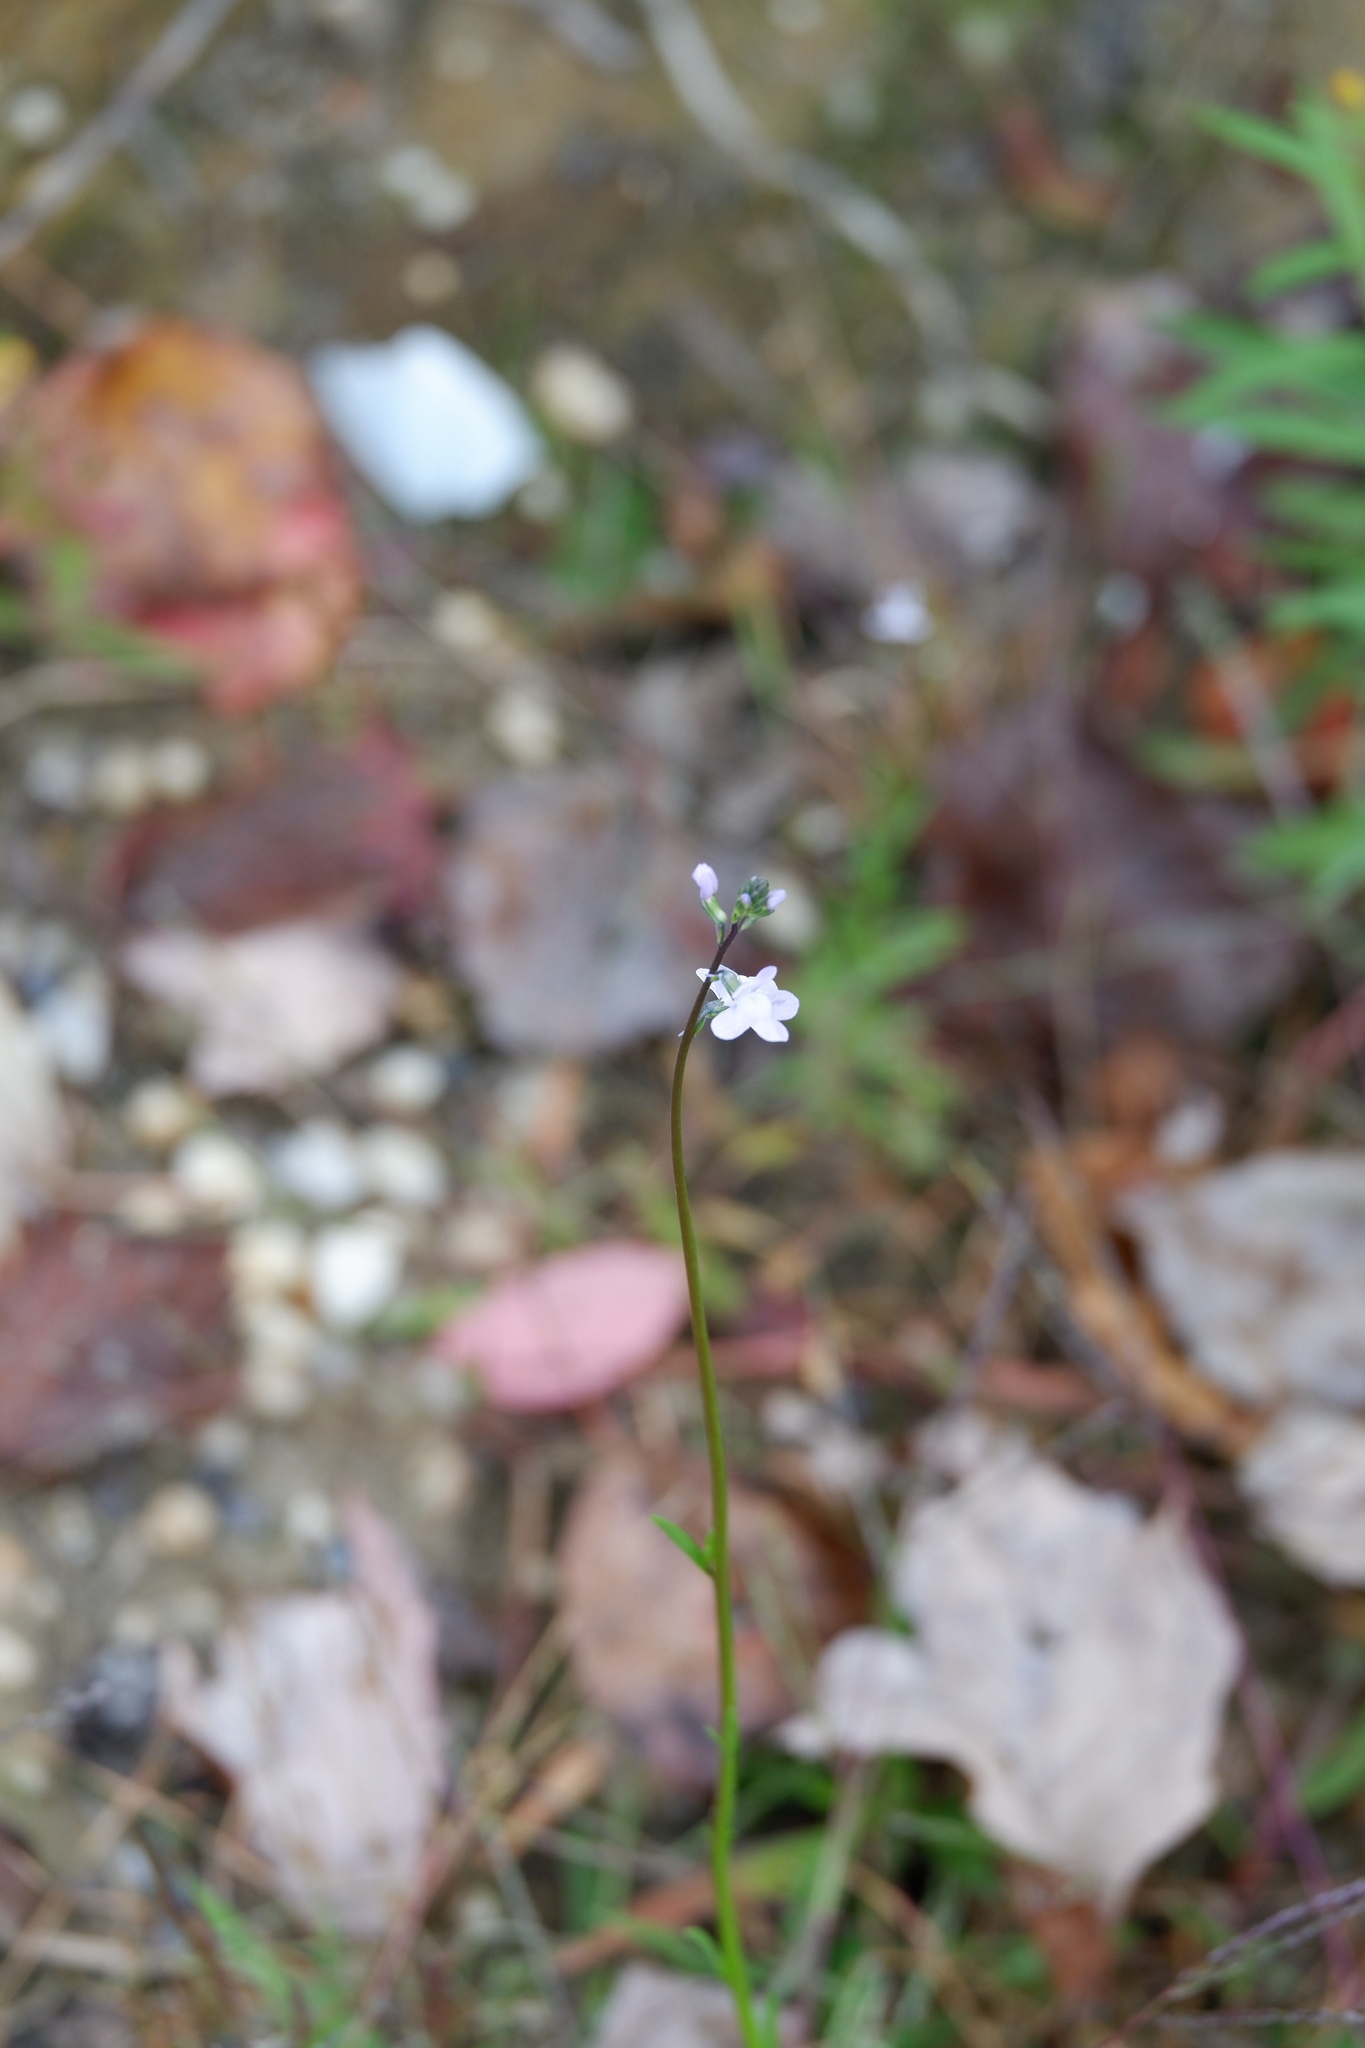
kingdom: Plantae
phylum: Tracheophyta
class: Magnoliopsida
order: Lamiales
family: Plantaginaceae
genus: Nuttallanthus
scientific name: Nuttallanthus canadensis
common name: Blue toadflax
